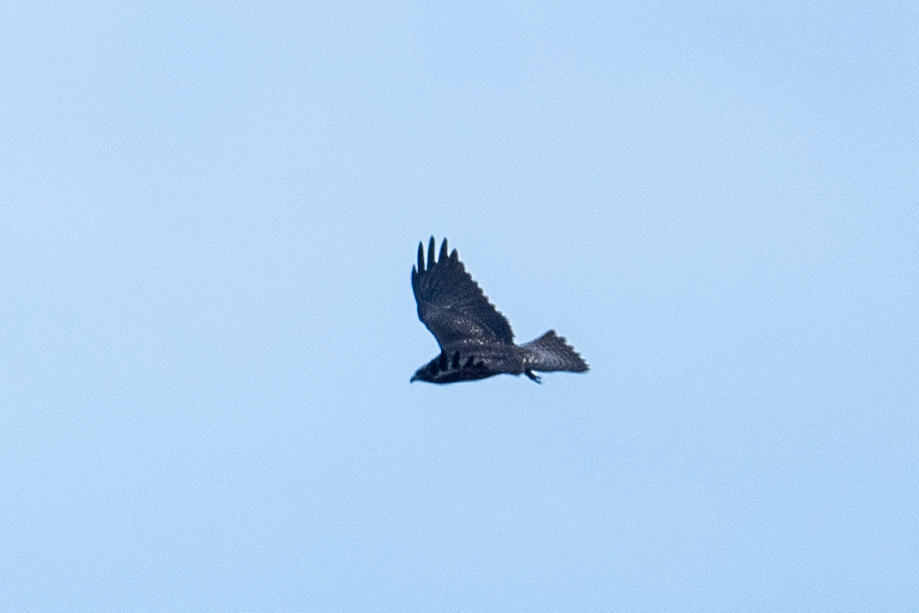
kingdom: Animalia
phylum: Chordata
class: Aves
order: Accipitriformes
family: Accipitridae
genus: Buteo
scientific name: Buteo swainsoni
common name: Swainson's hawk
